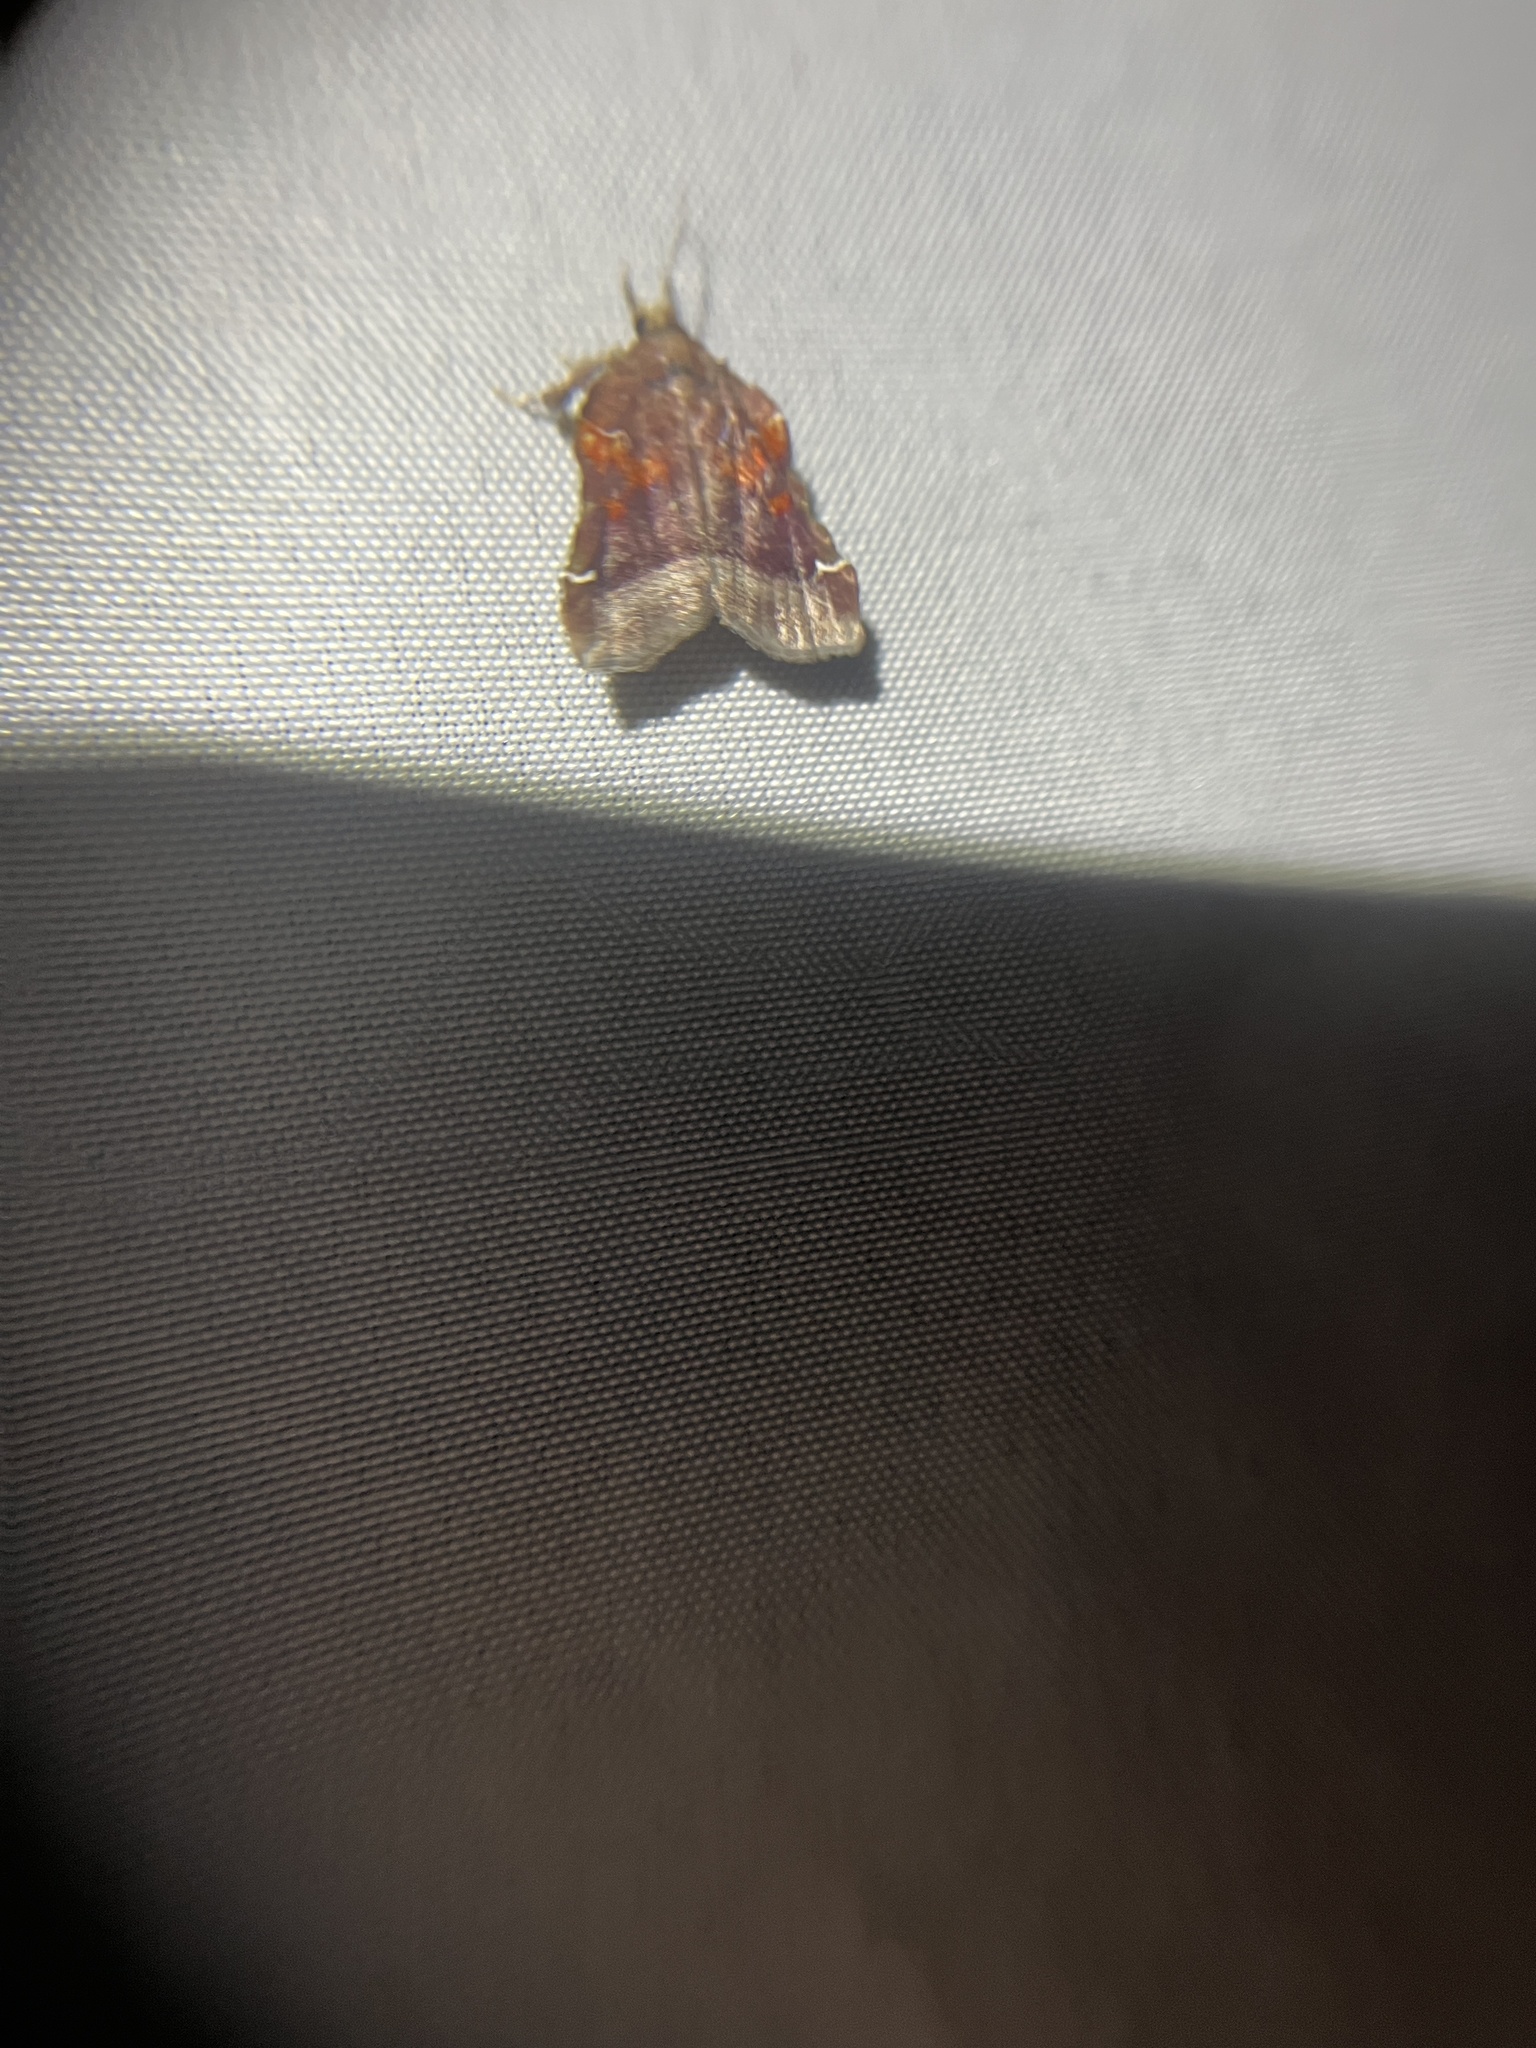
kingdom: Animalia
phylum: Arthropoda
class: Insecta
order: Lepidoptera
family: Pyralidae
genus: Clydonopteron
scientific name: Clydonopteron sacculana
